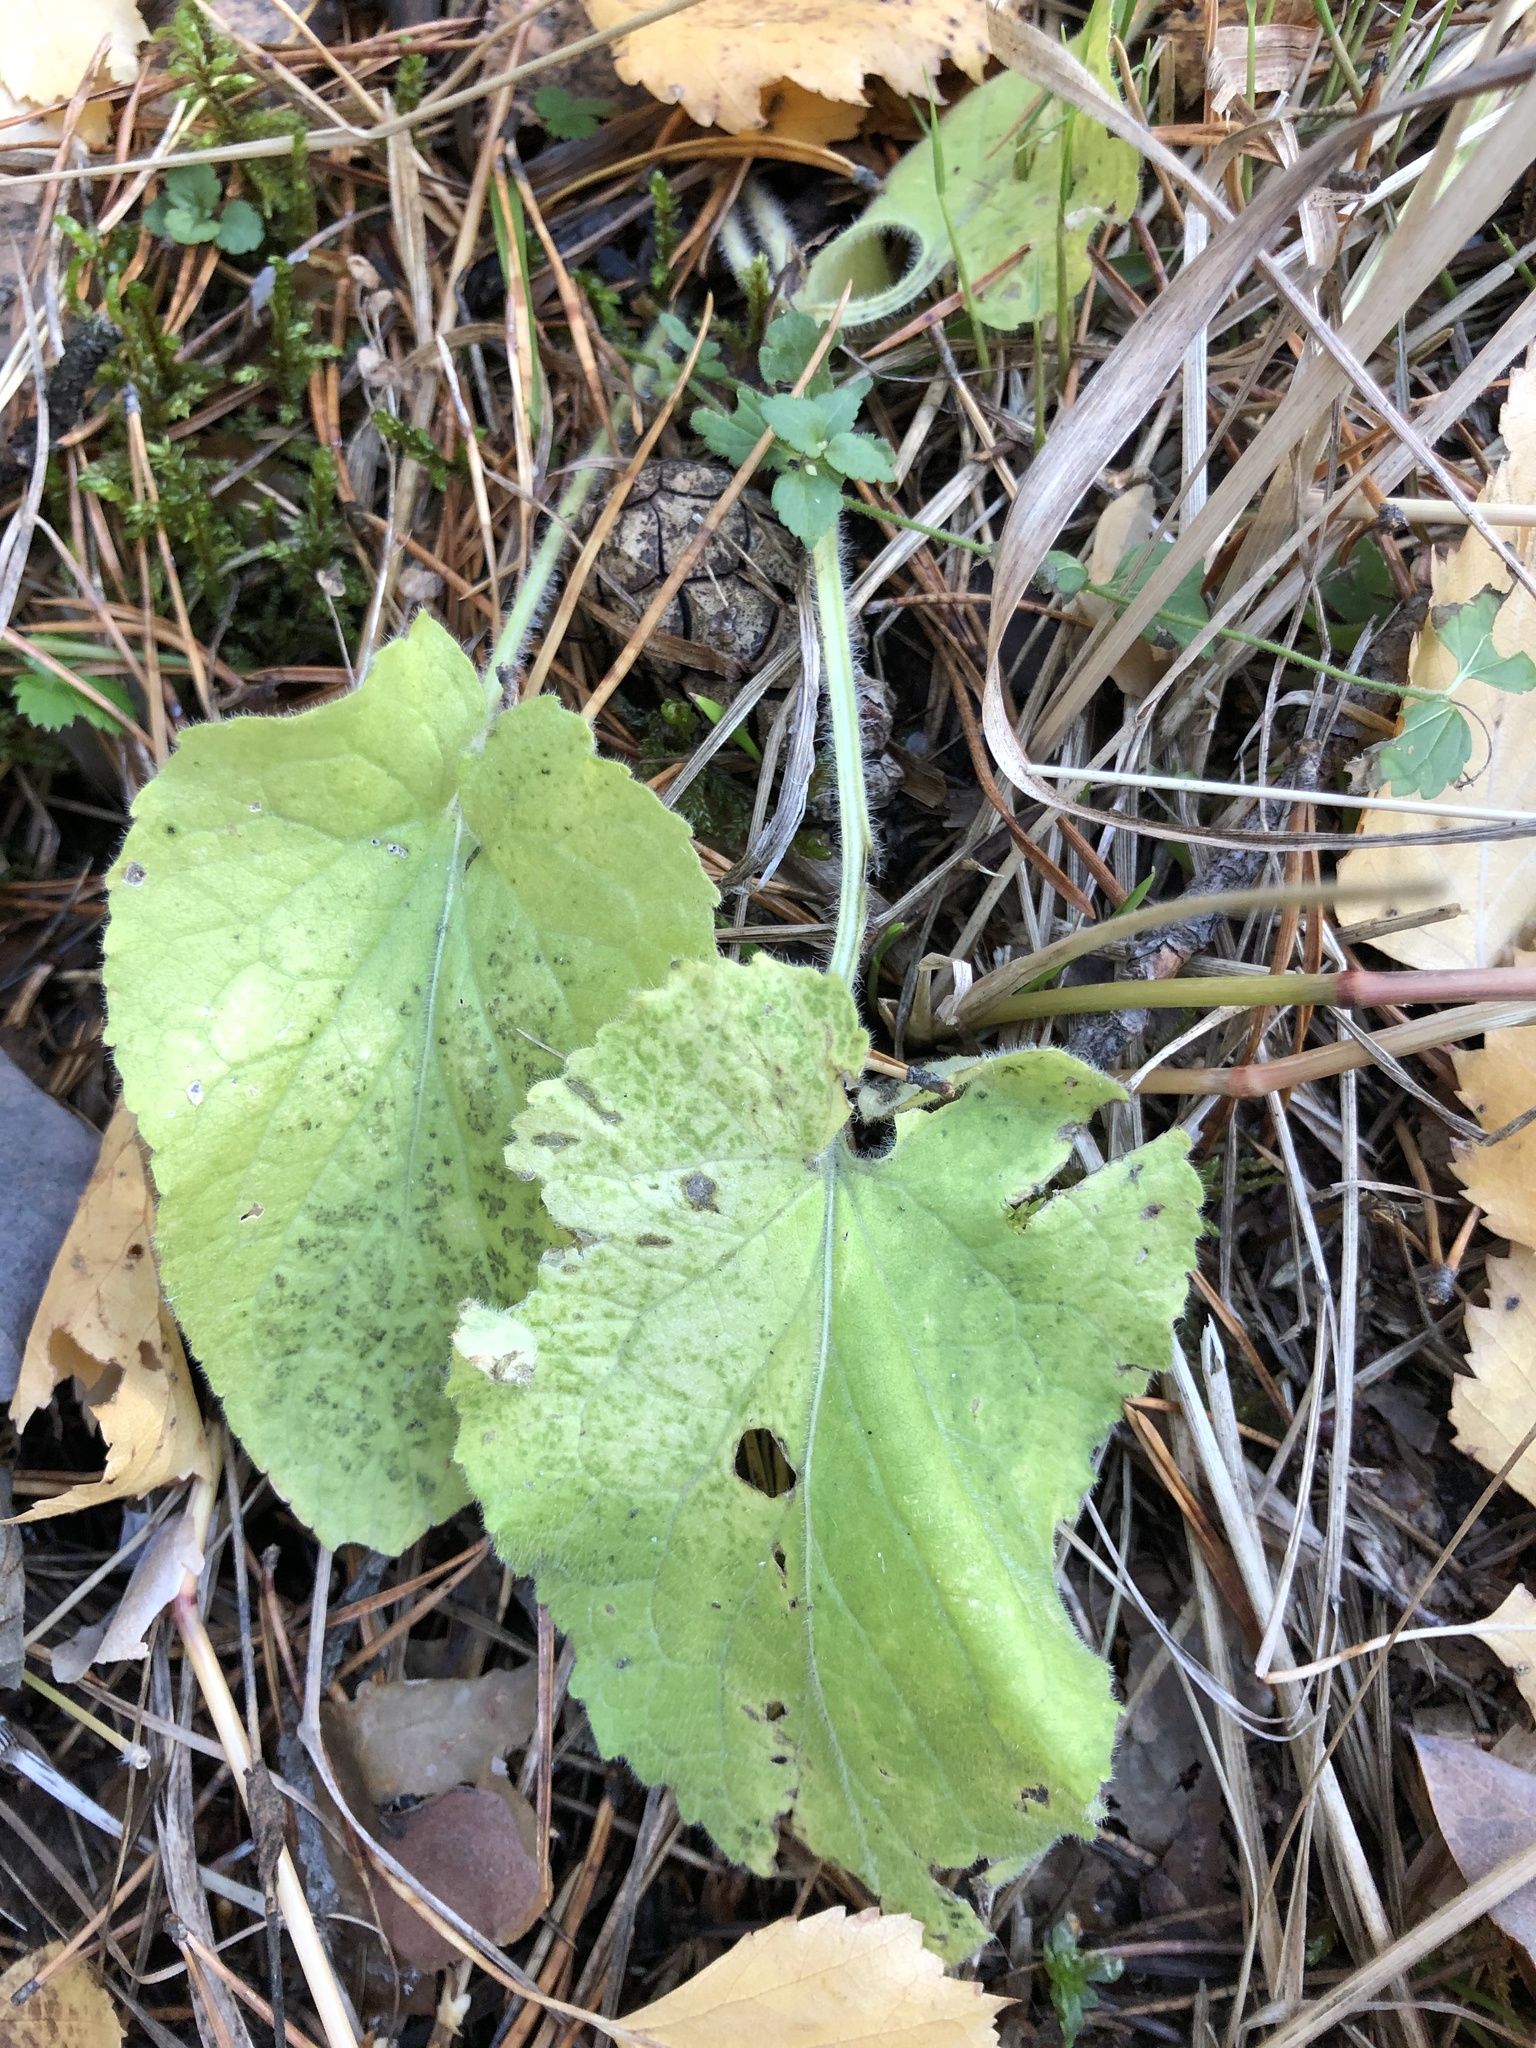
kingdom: Plantae
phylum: Tracheophyta
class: Magnoliopsida
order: Malpighiales
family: Violaceae
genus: Viola
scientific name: Viola hirta
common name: Hairy violet
